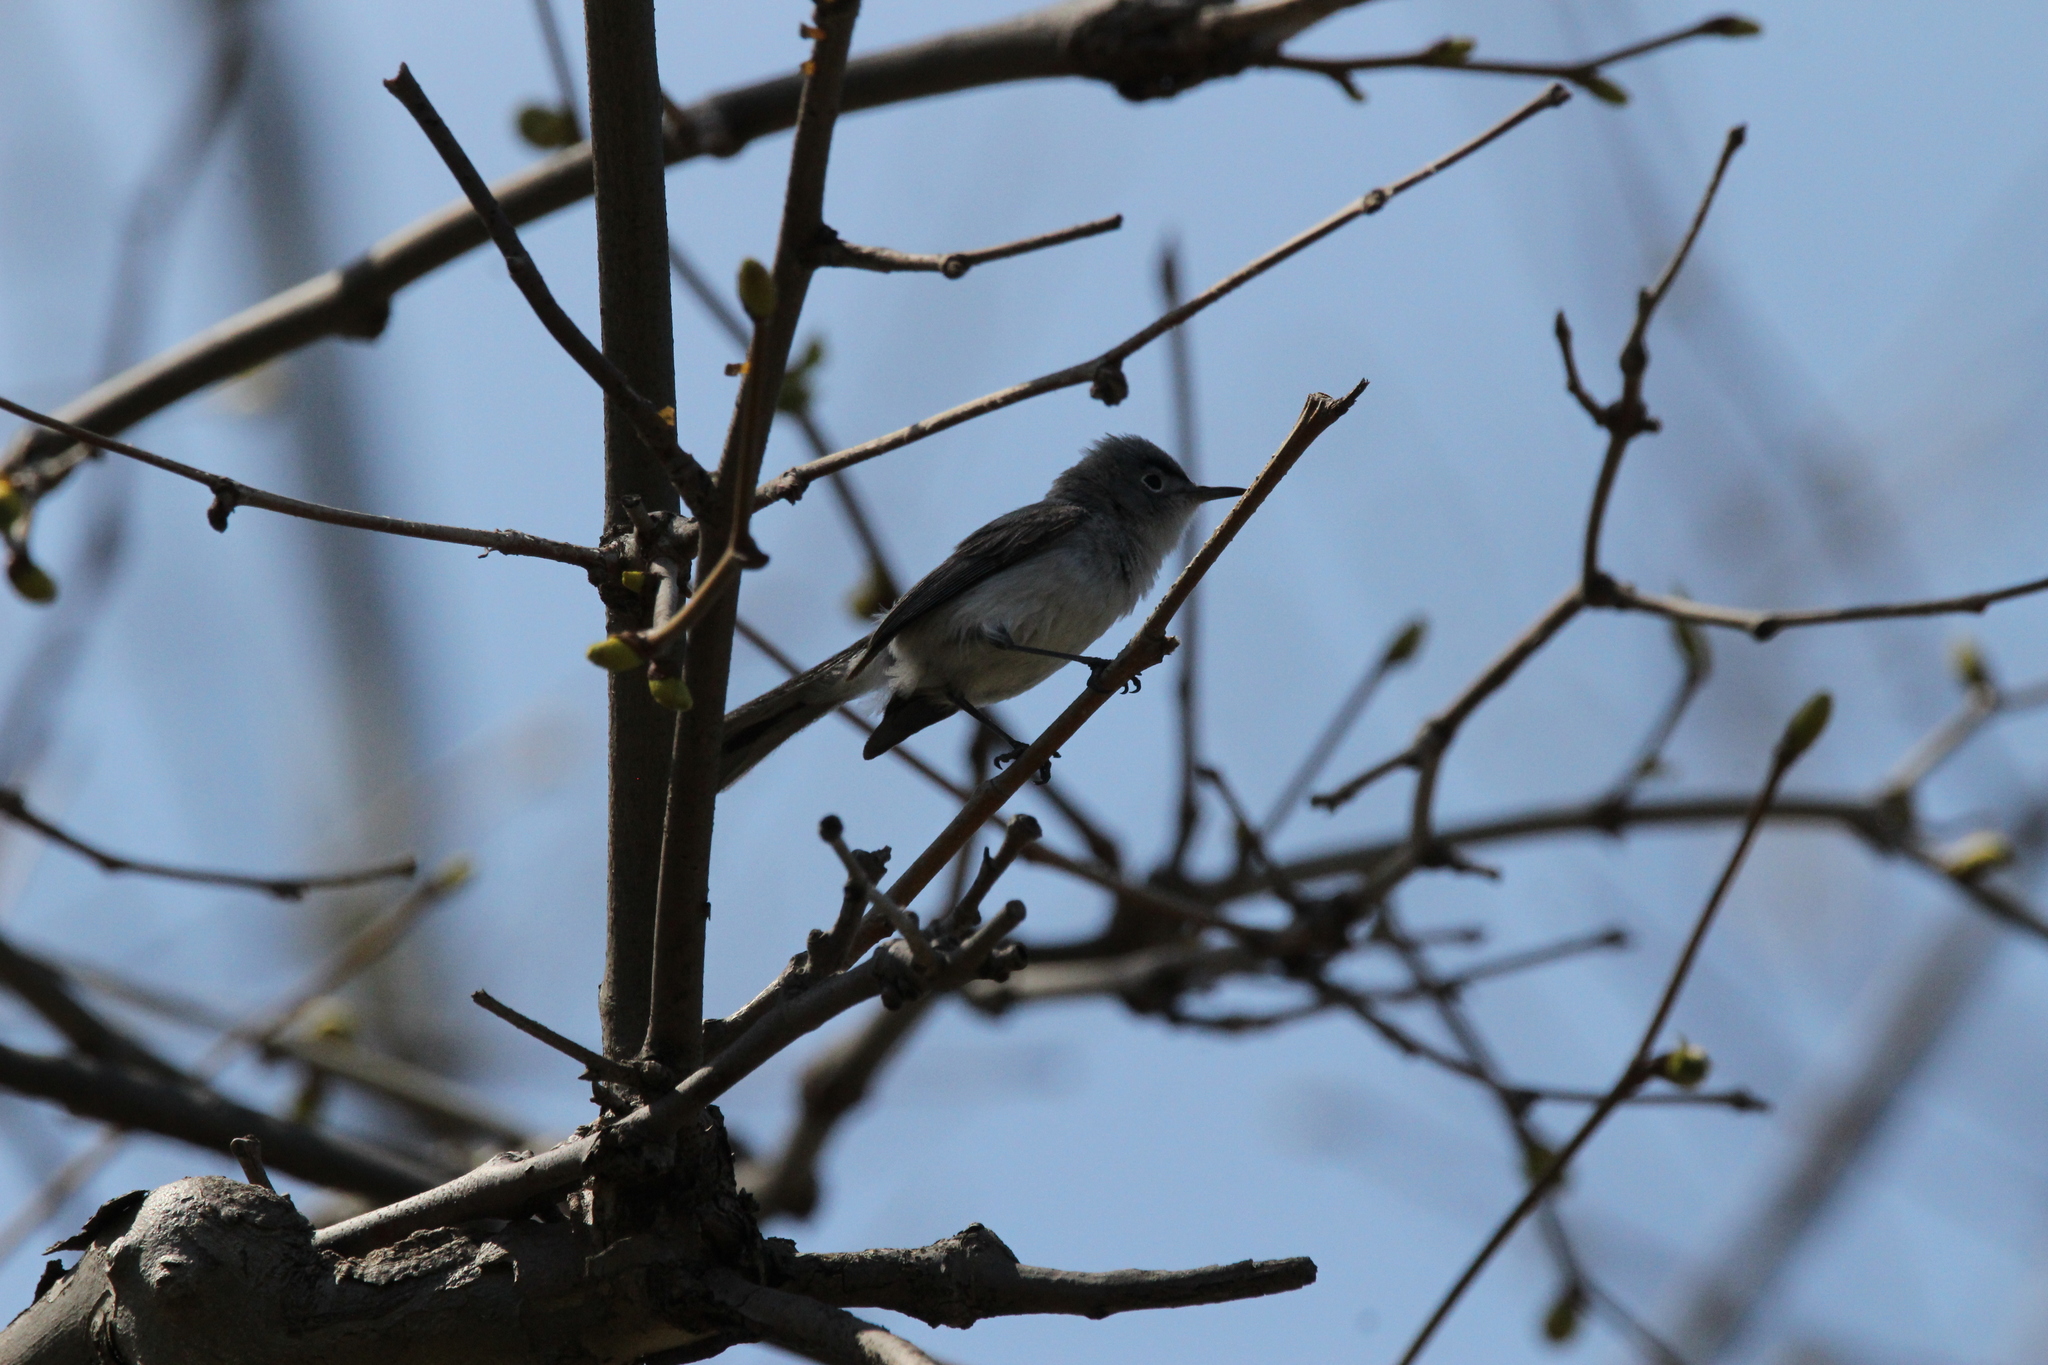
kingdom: Animalia
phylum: Chordata
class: Aves
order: Passeriformes
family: Polioptilidae
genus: Polioptila
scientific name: Polioptila caerulea
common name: Blue-gray gnatcatcher
